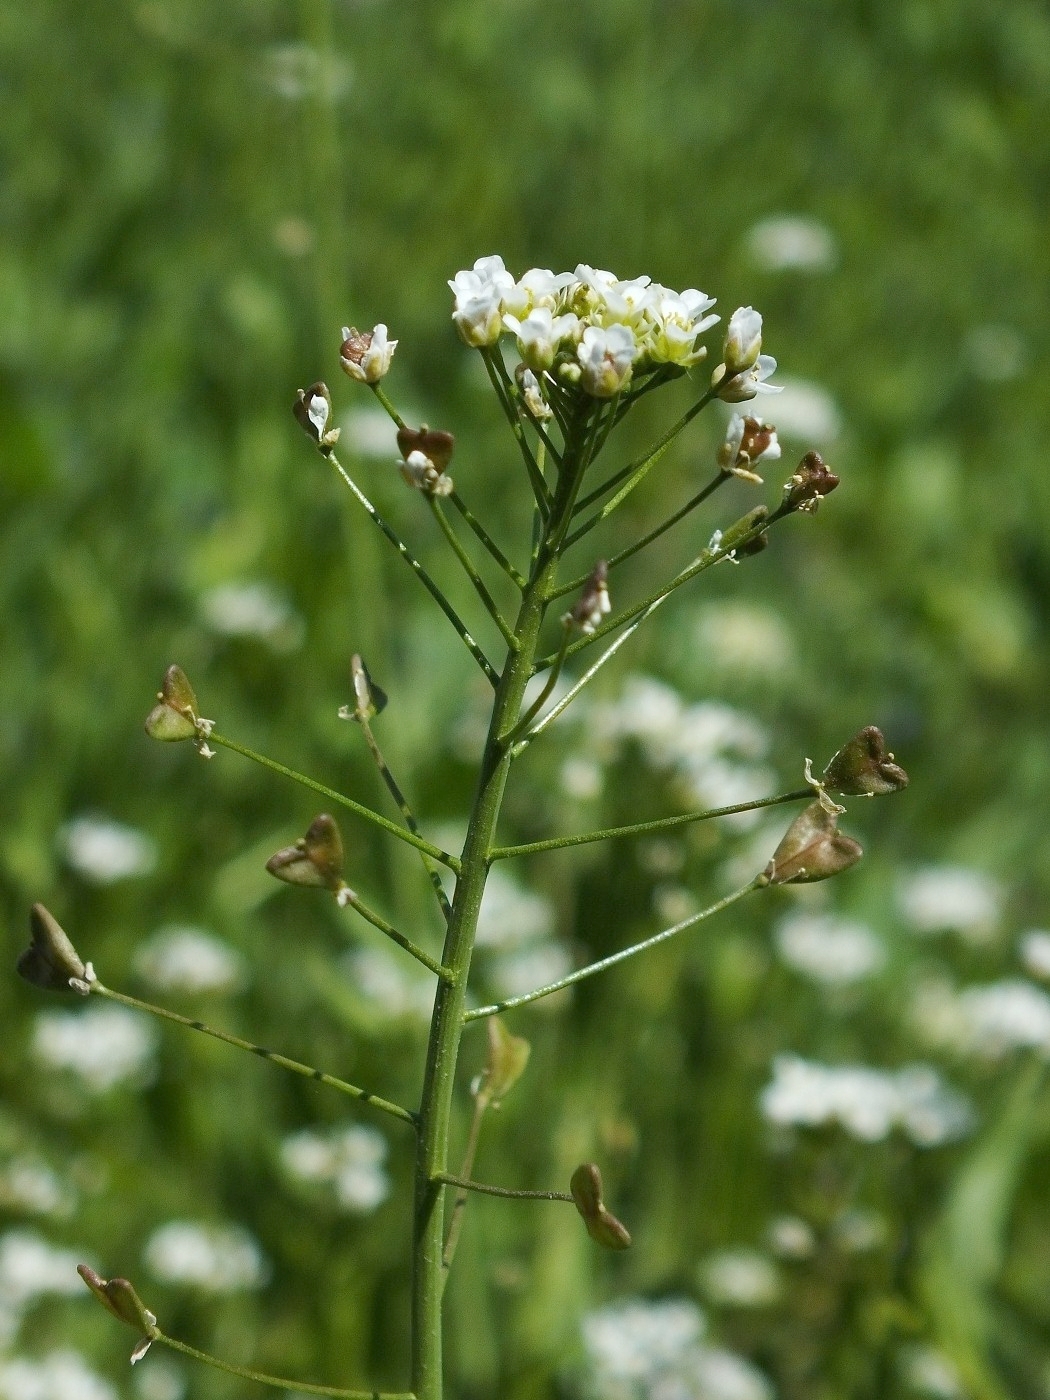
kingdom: Plantae
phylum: Tracheophyta
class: Magnoliopsida
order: Brassicales
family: Brassicaceae
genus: Capsella
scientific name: Capsella bursa-pastoris
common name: Shepherd's purse
